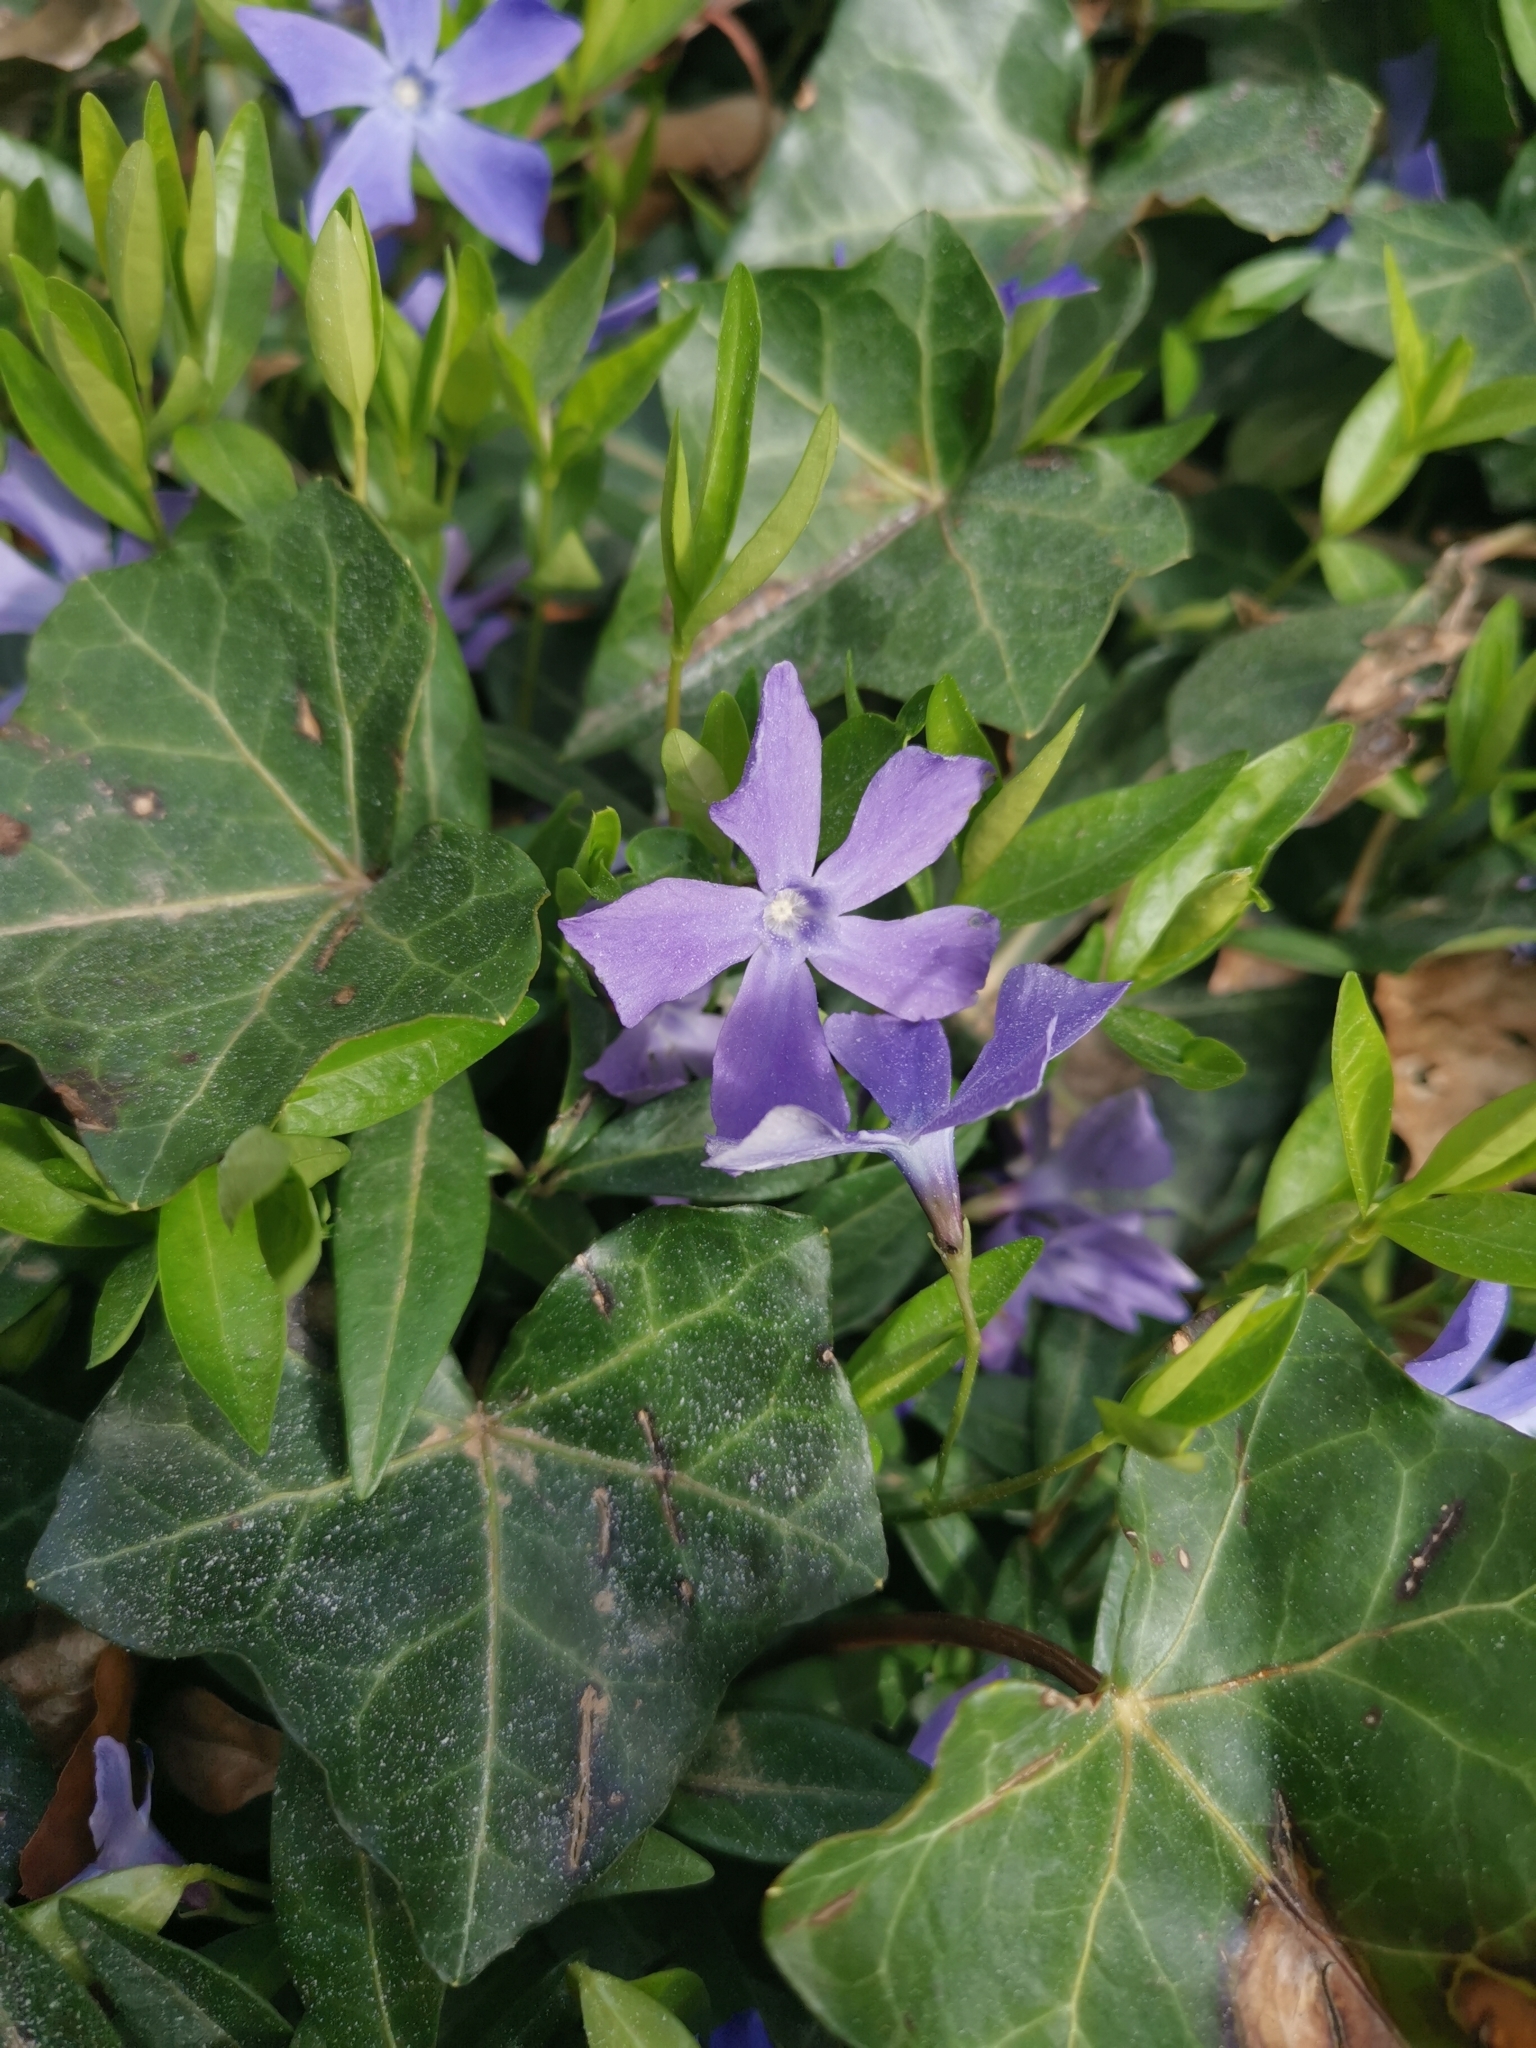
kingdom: Plantae
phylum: Tracheophyta
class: Magnoliopsida
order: Gentianales
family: Apocynaceae
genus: Vinca
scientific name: Vinca minor
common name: Lesser periwinkle
